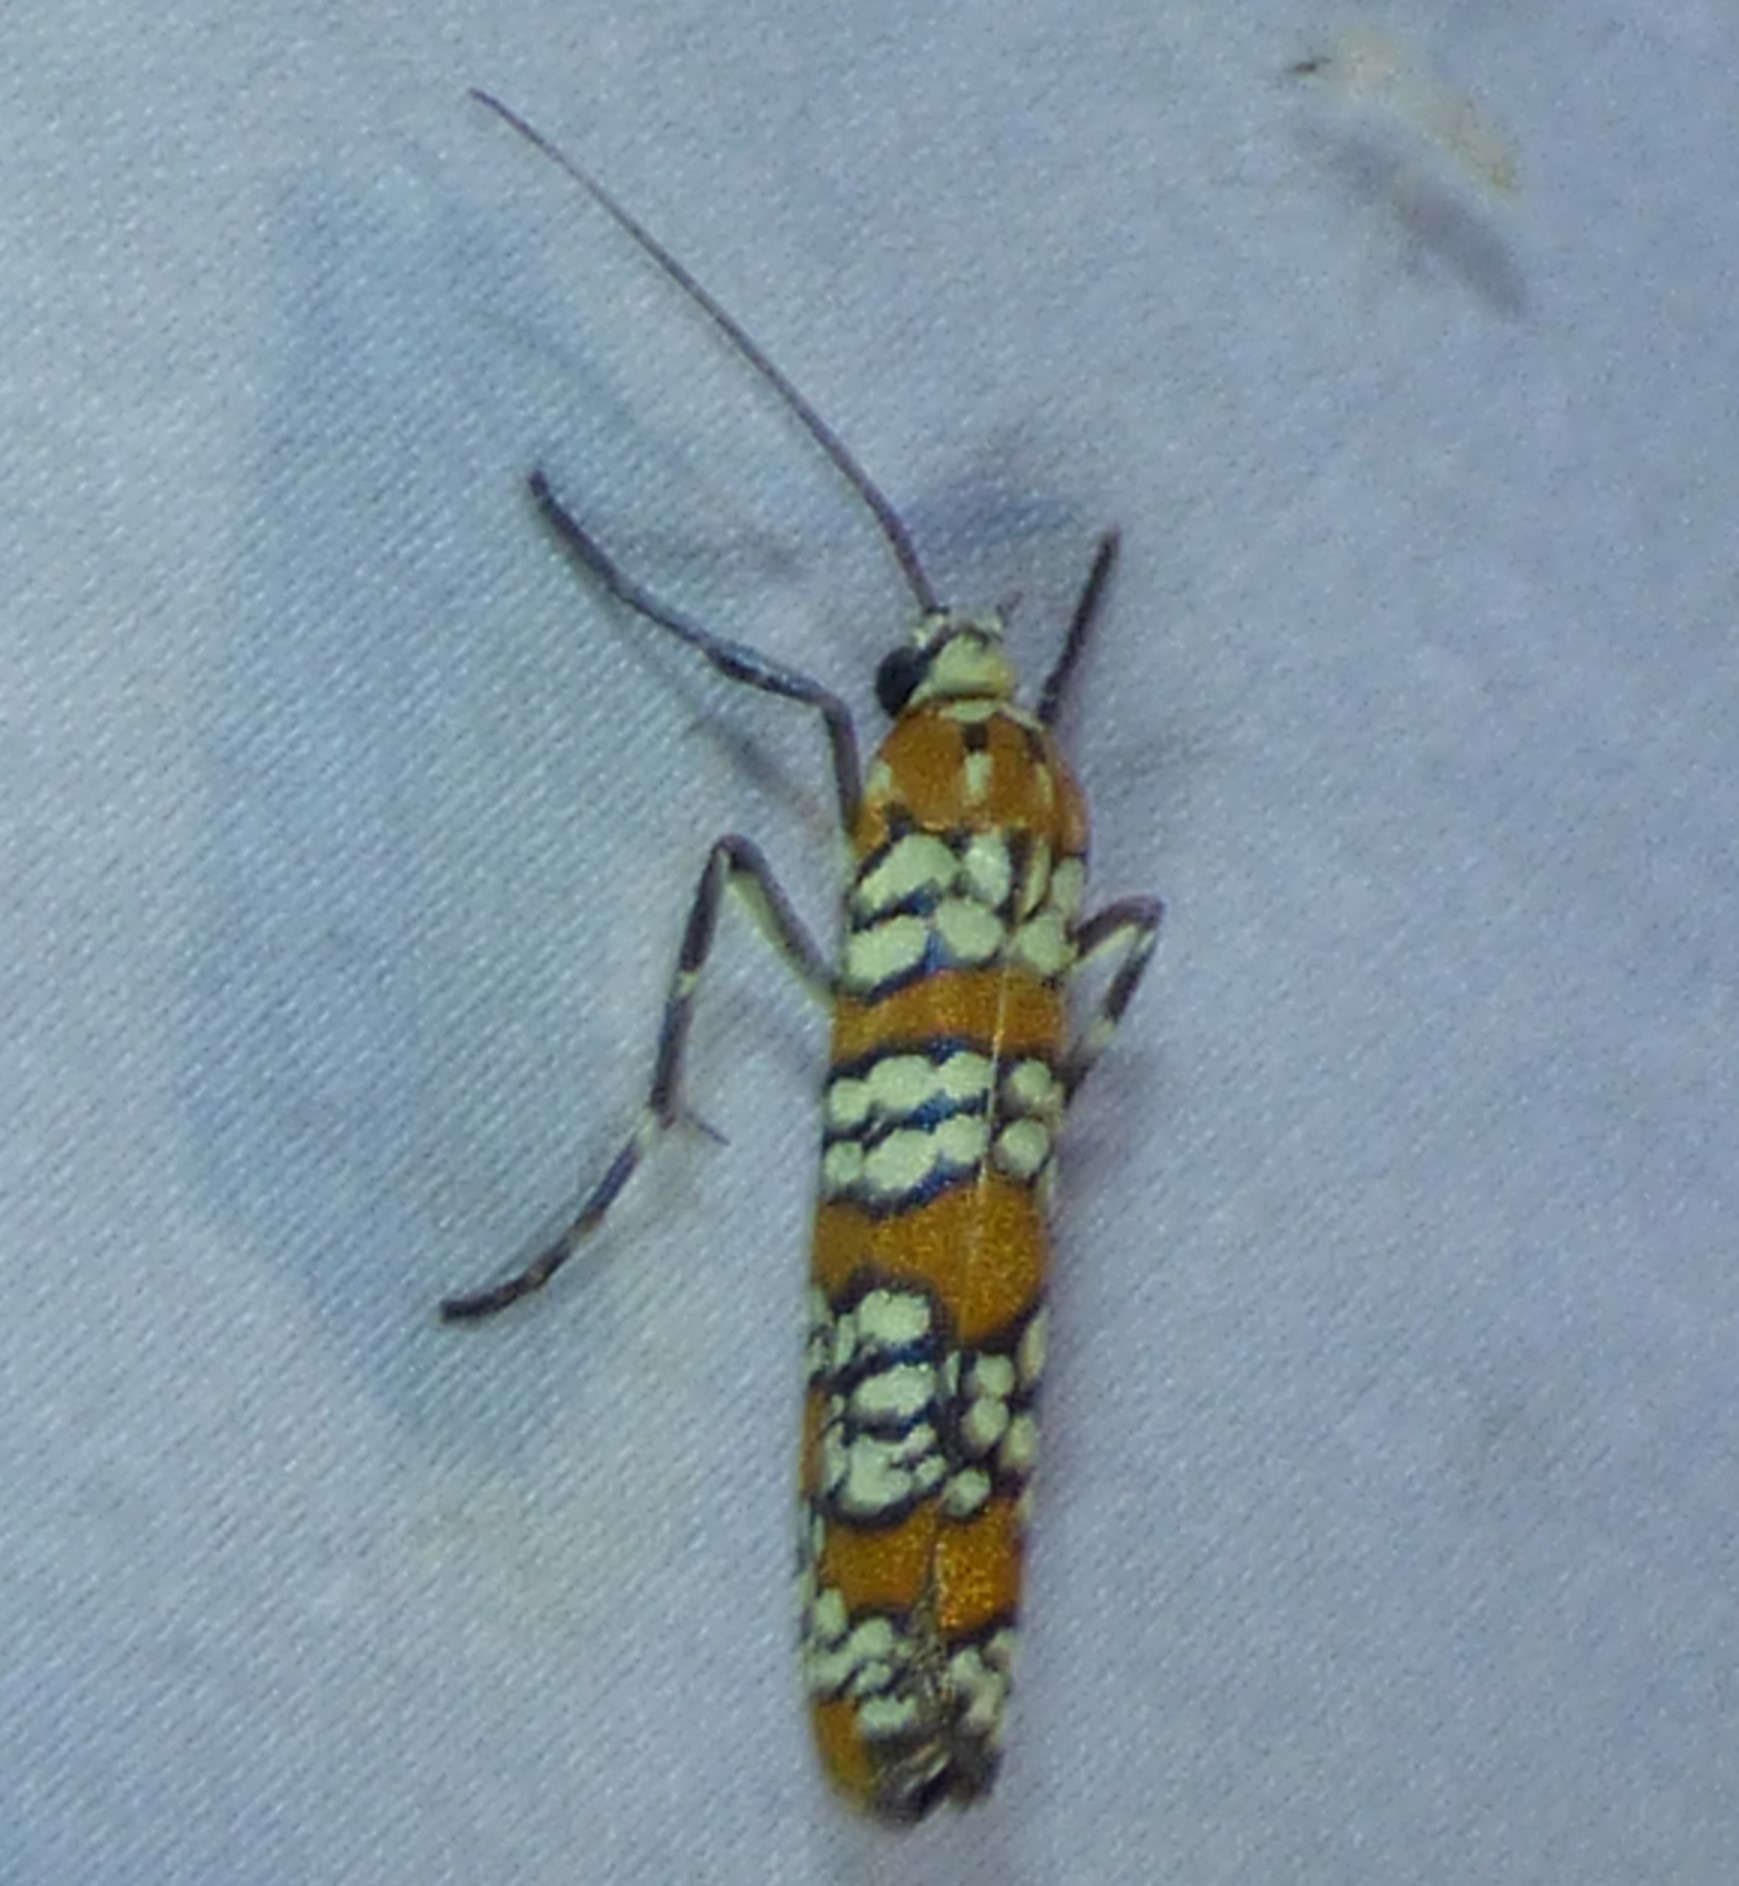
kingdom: Animalia
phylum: Arthropoda
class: Insecta
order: Lepidoptera
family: Attevidae
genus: Atteva
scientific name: Atteva punctella
